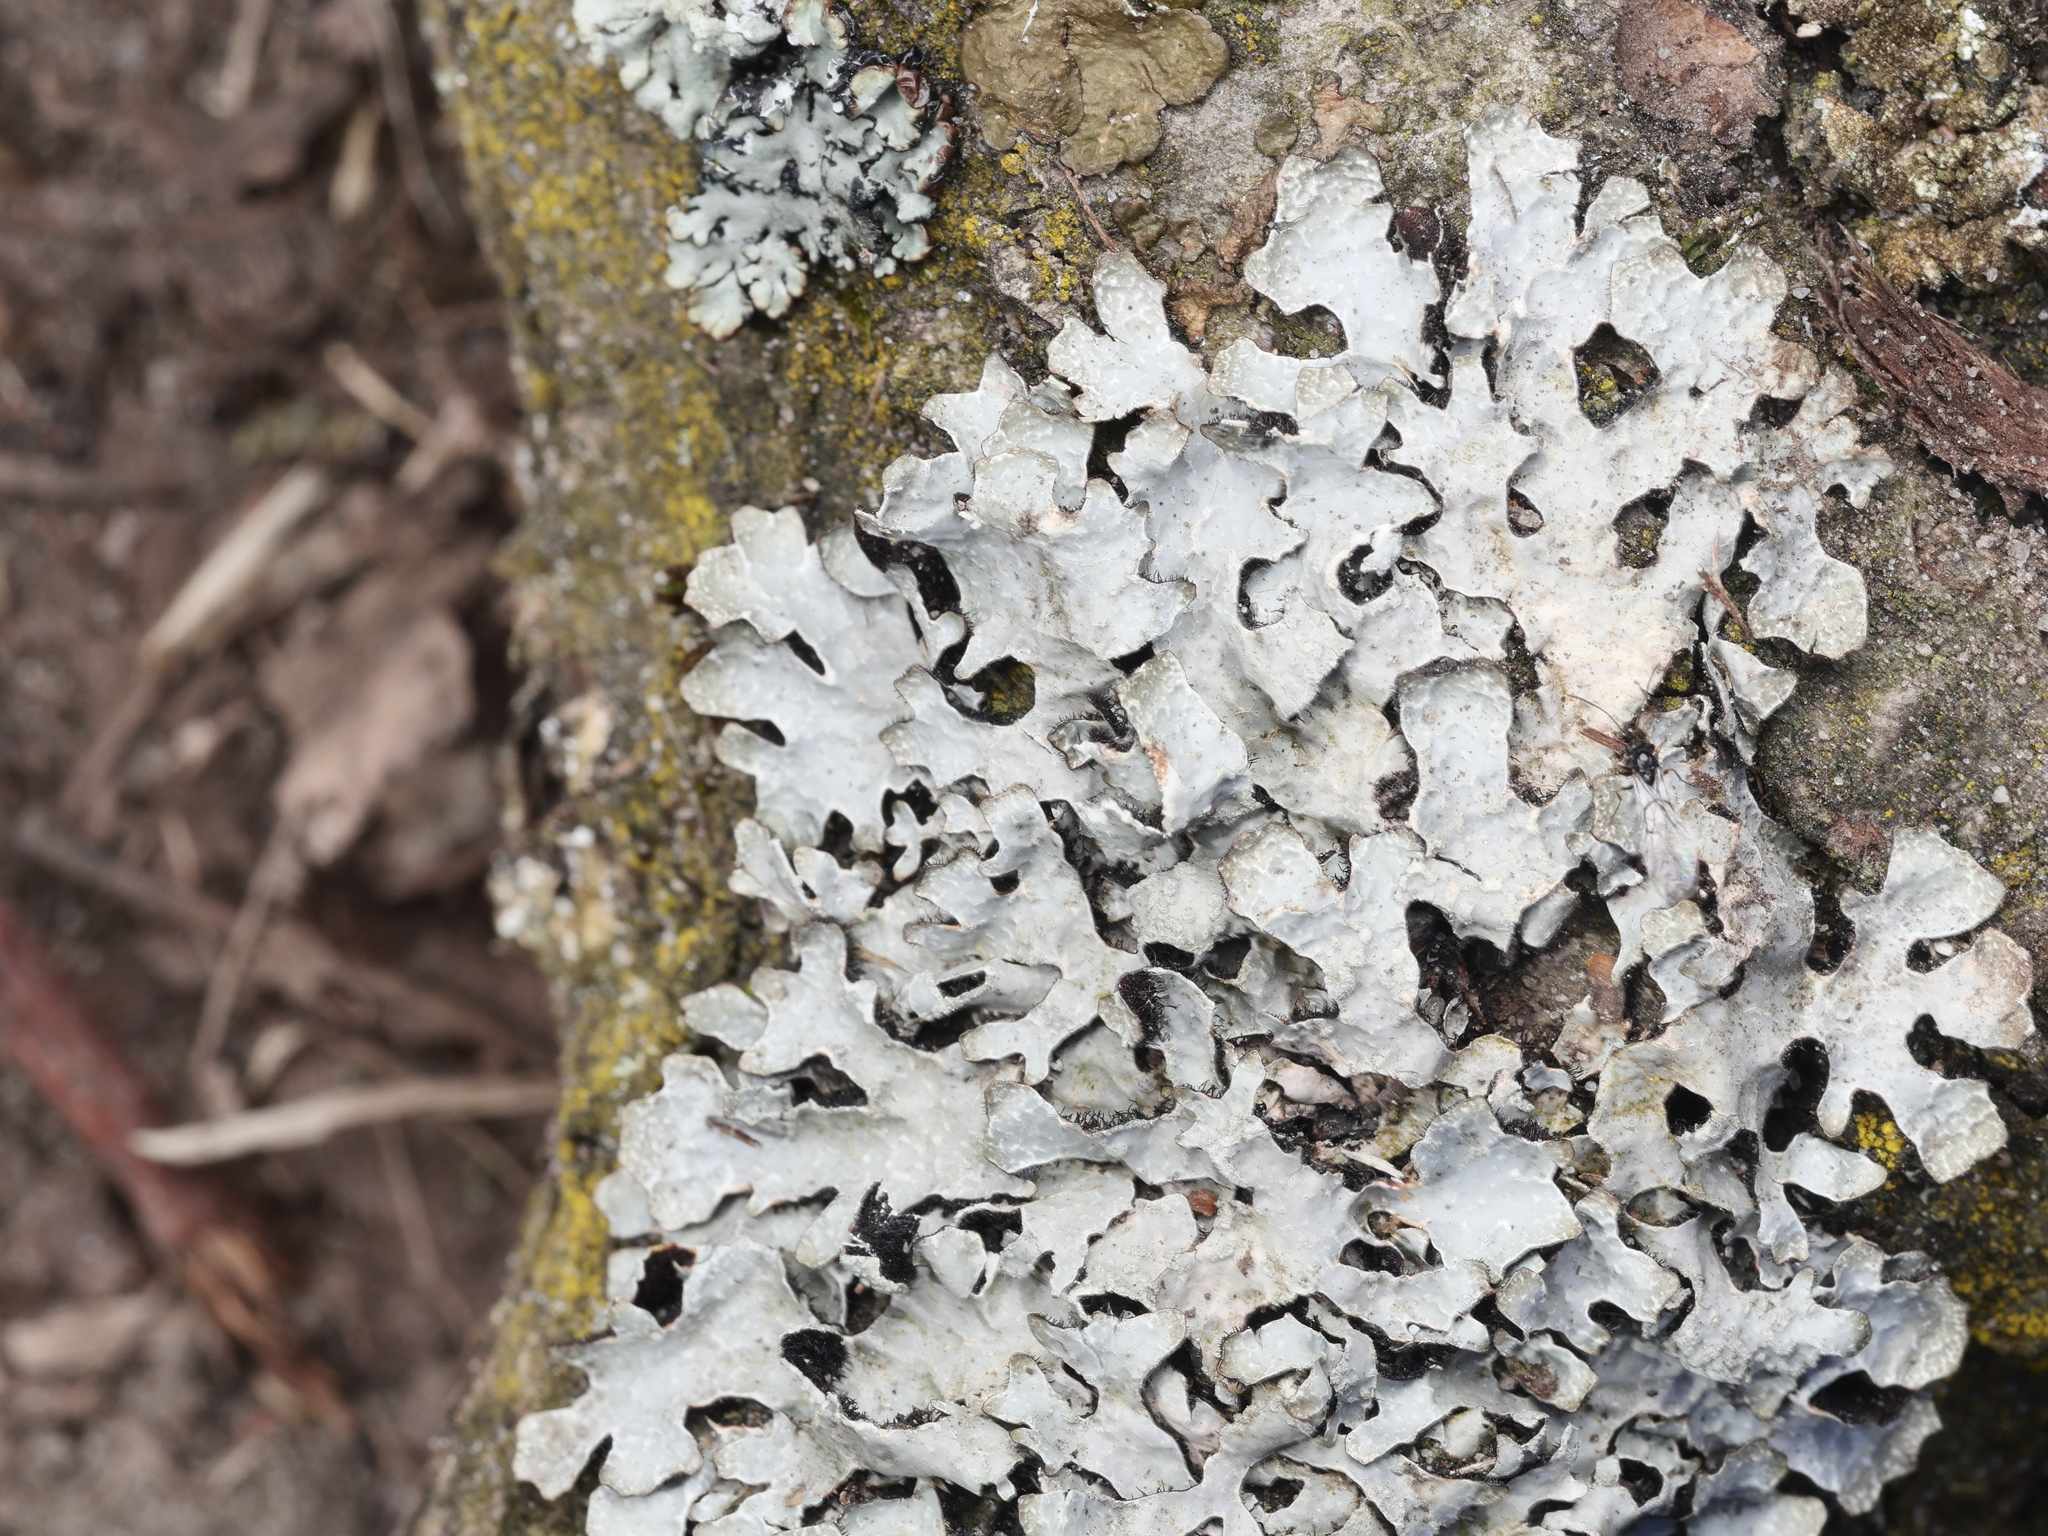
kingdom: Fungi
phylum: Ascomycota
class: Lecanoromycetes
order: Lecanorales
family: Parmeliaceae
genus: Parmelia
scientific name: Parmelia sulcata
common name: Netted shield lichen
